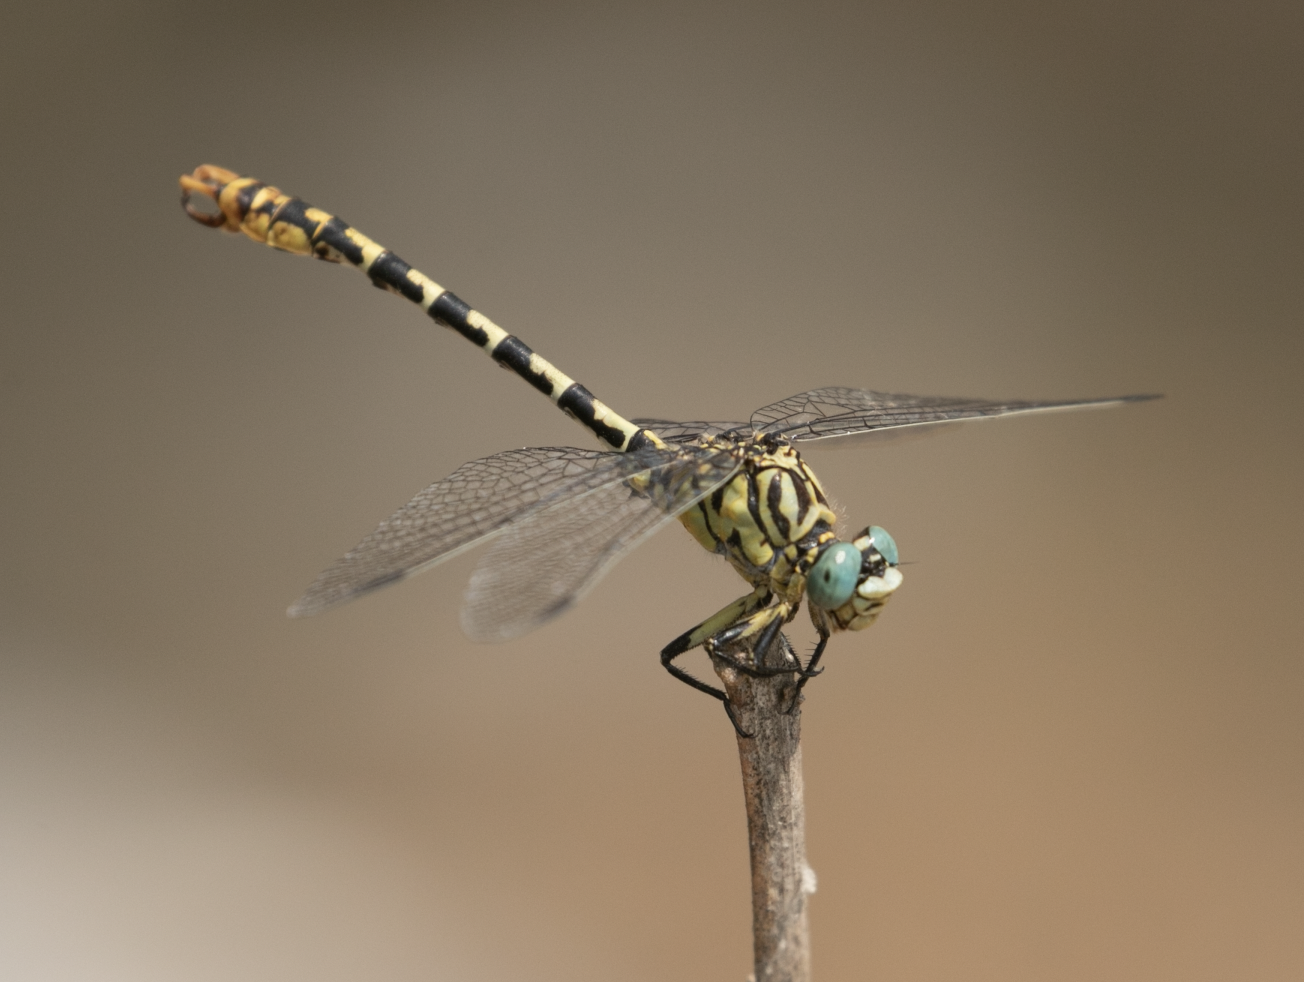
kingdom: Animalia
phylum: Arthropoda
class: Insecta
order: Odonata
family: Gomphidae
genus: Onychogomphus
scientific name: Onychogomphus forcipatus
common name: Small pincertail
